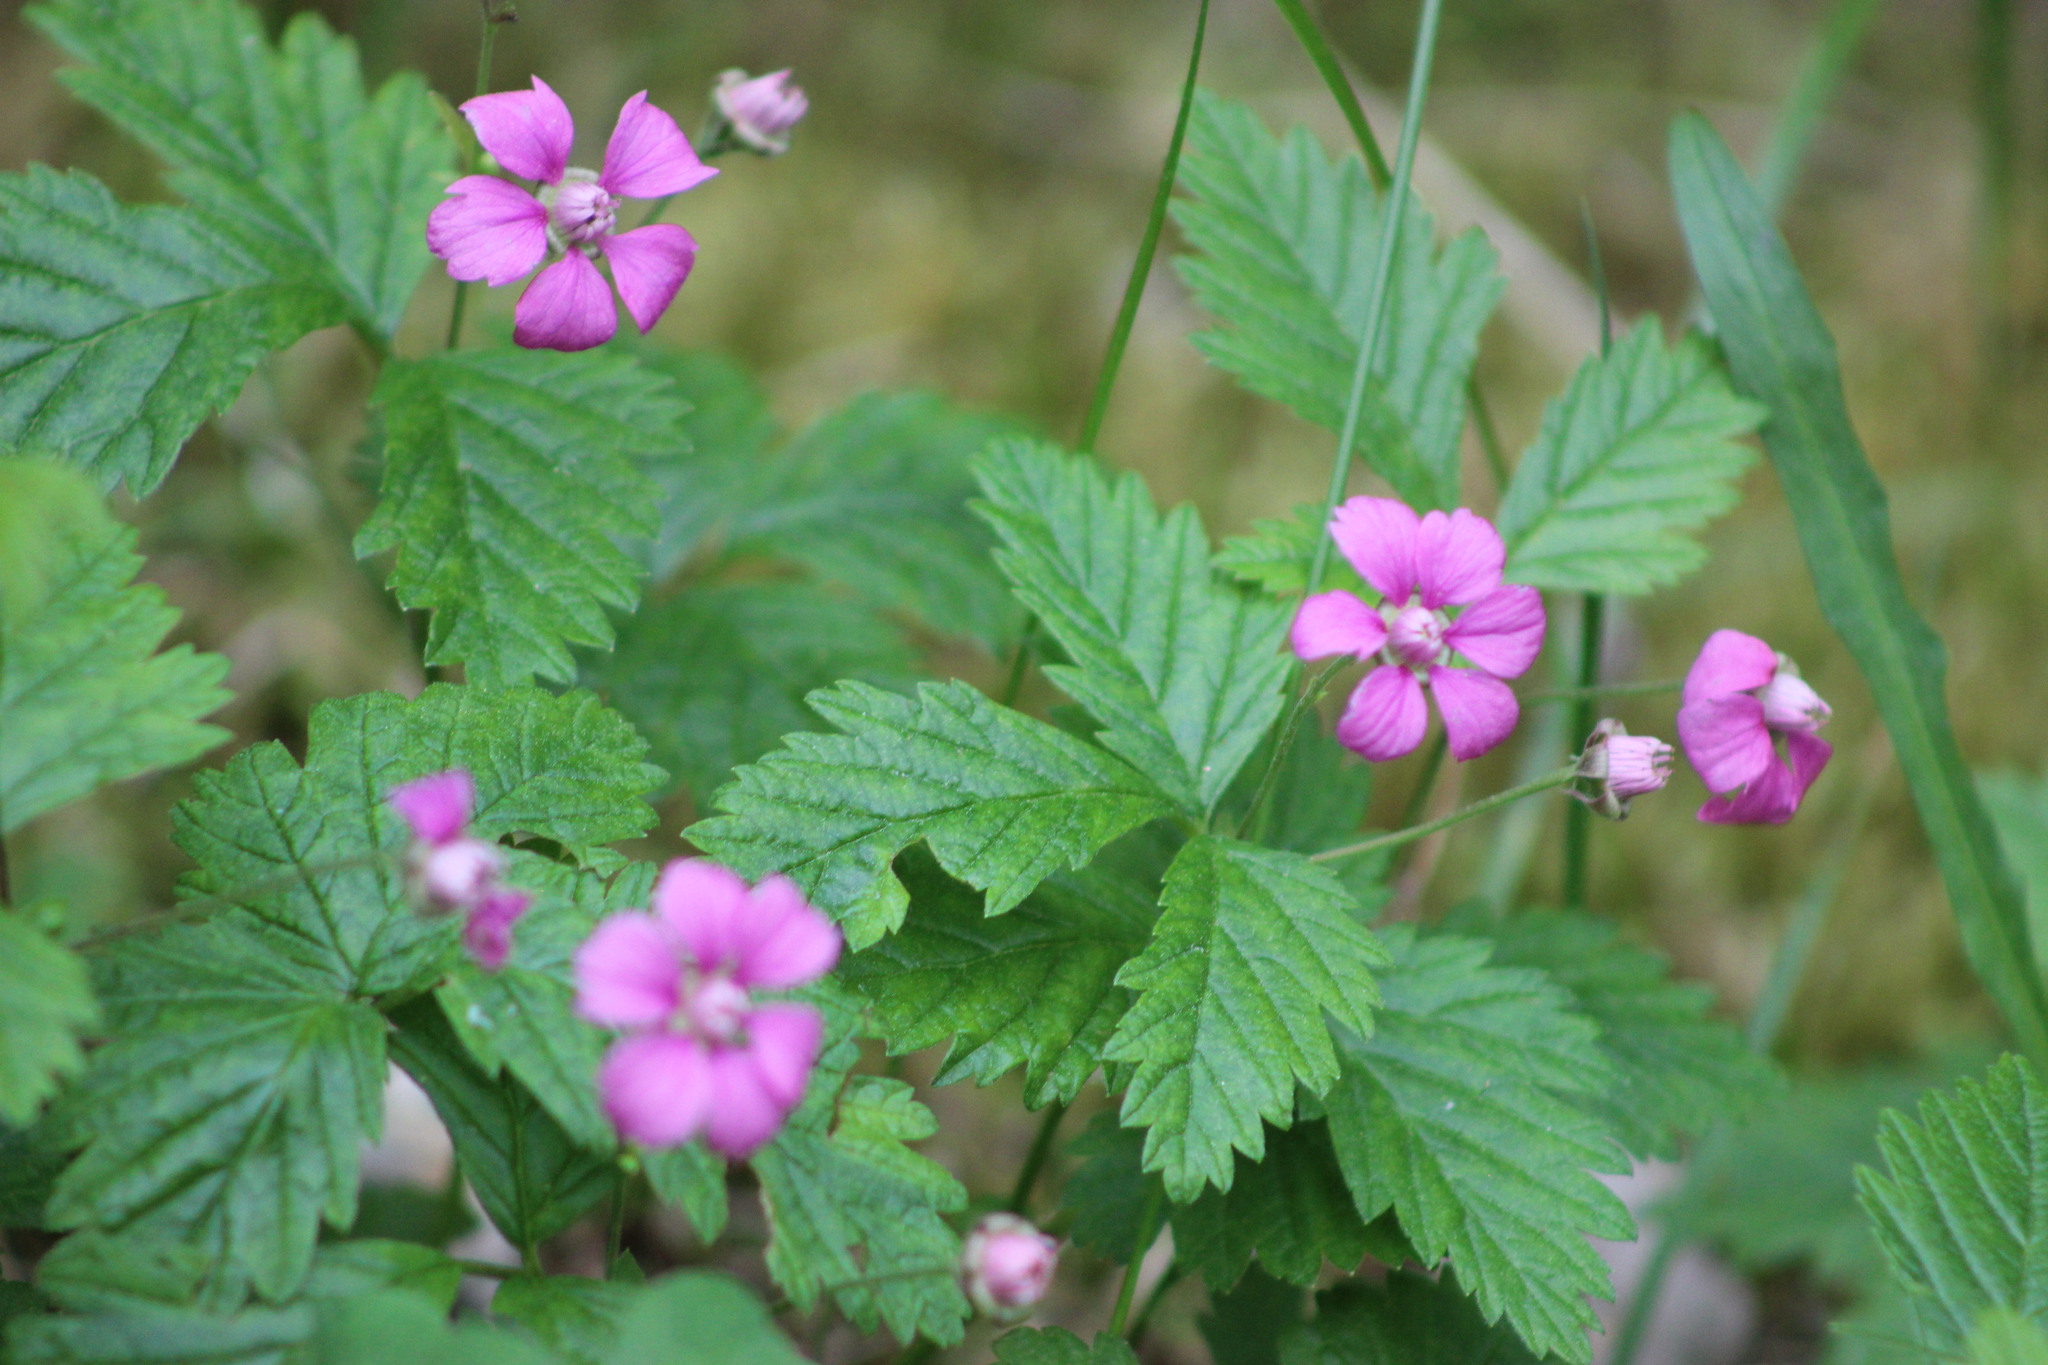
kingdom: Plantae
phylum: Tracheophyta
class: Magnoliopsida
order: Rosales
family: Rosaceae
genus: Rubus
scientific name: Rubus arcticus
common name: Arctic bramble
